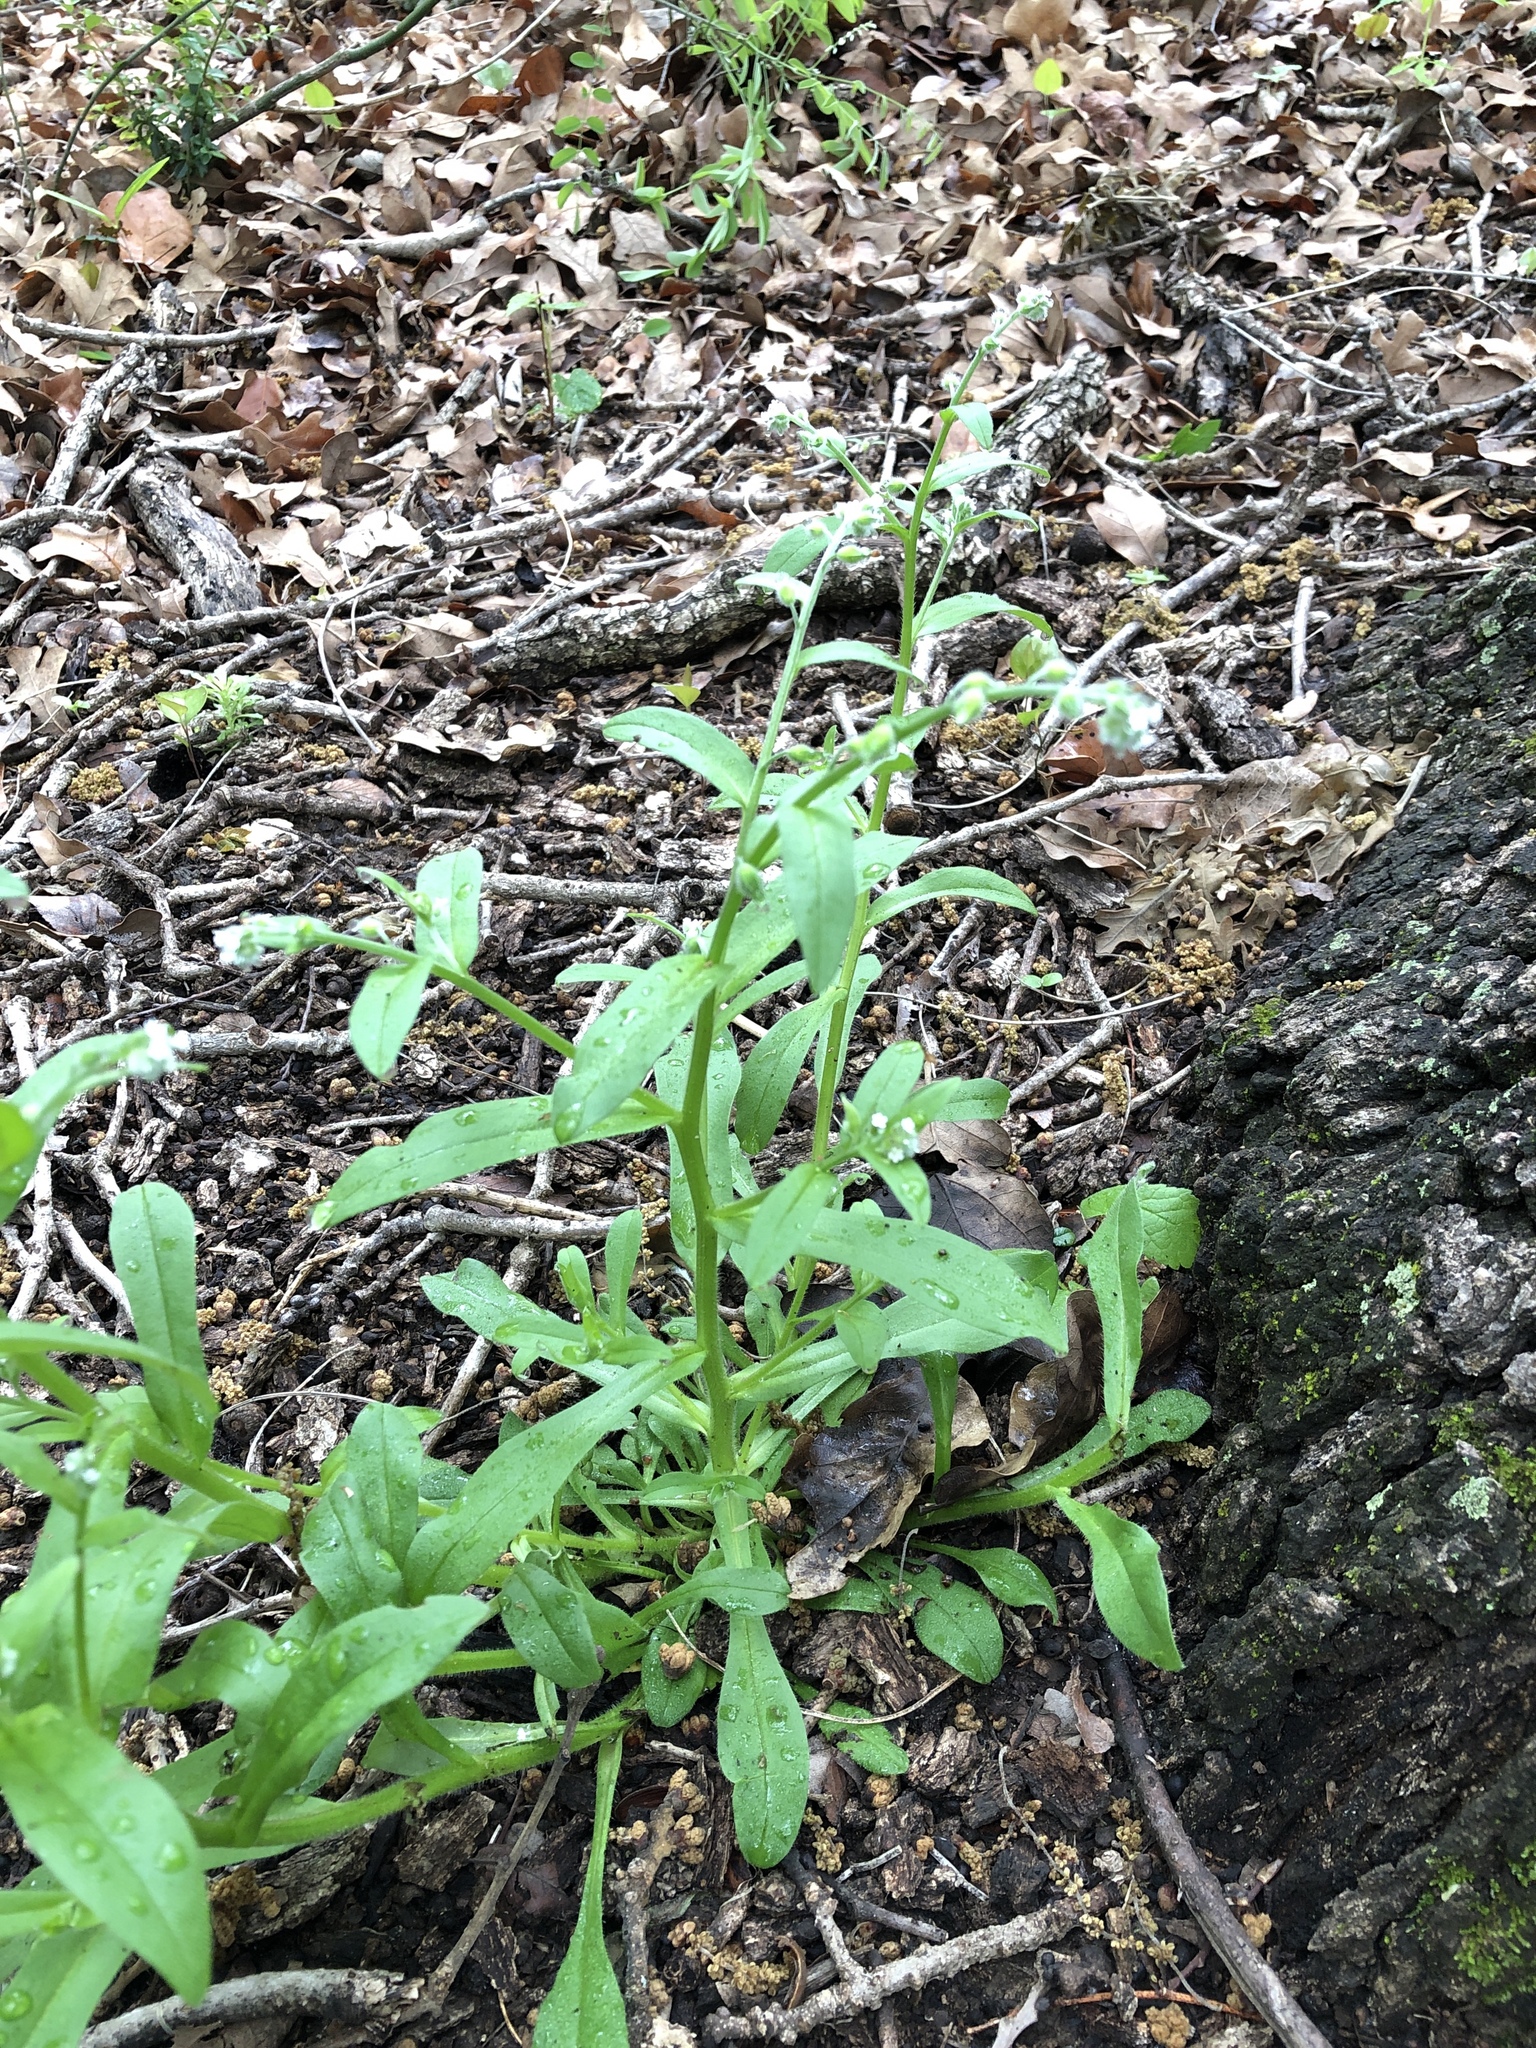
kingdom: Plantae
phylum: Tracheophyta
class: Magnoliopsida
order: Boraginales
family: Boraginaceae
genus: Myosotis
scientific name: Myosotis macrosperma
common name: Large-seed forget-me-not
